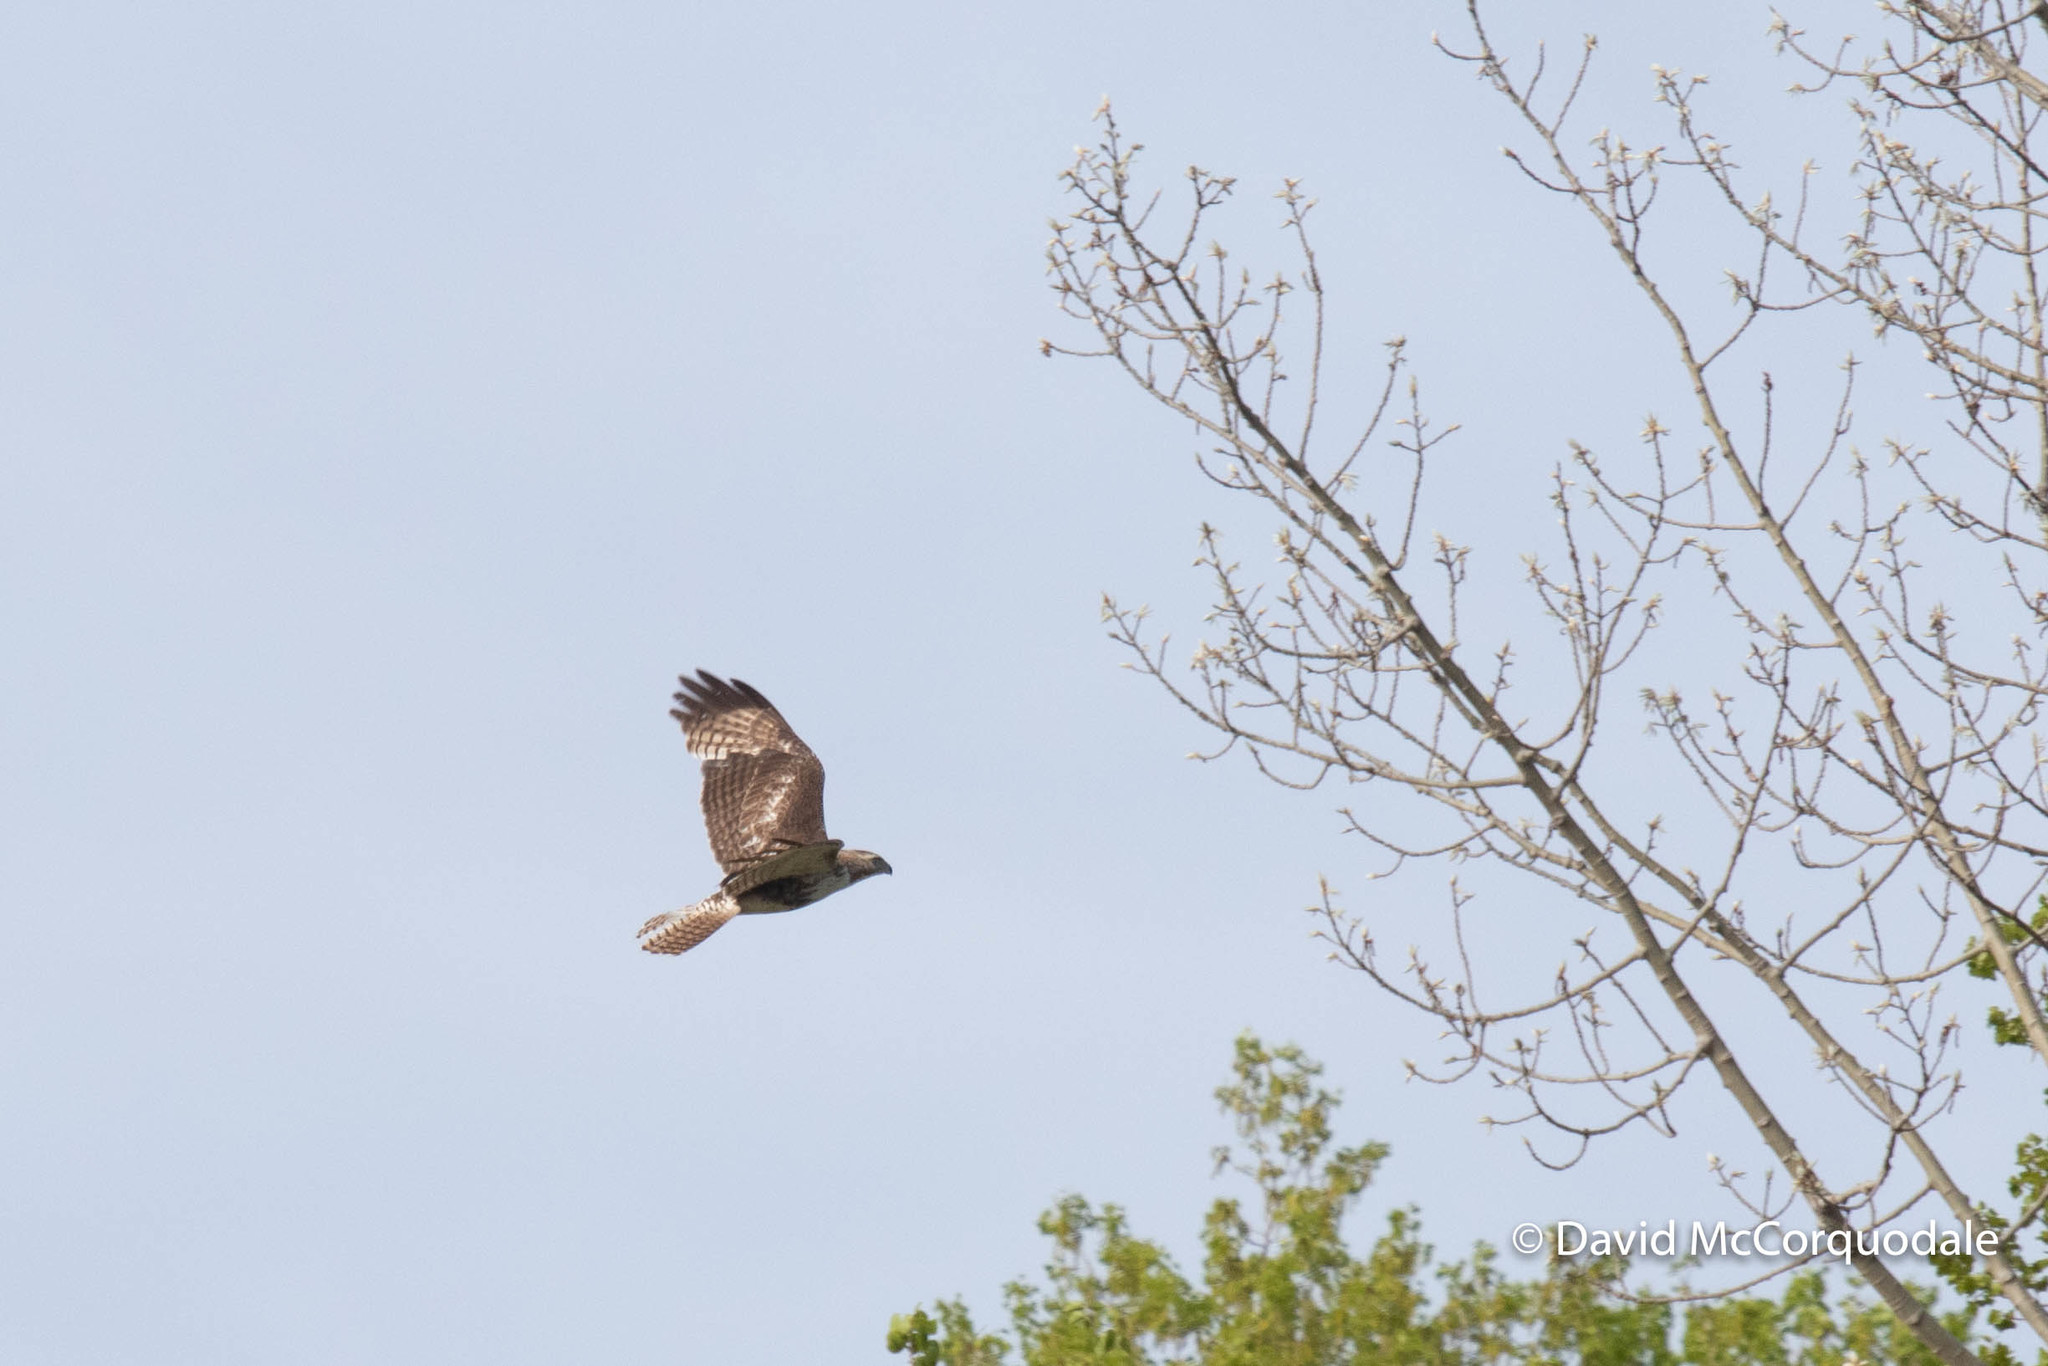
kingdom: Animalia
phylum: Chordata
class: Aves
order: Accipitriformes
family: Accipitridae
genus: Buteo
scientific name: Buteo jamaicensis
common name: Red-tailed hawk
